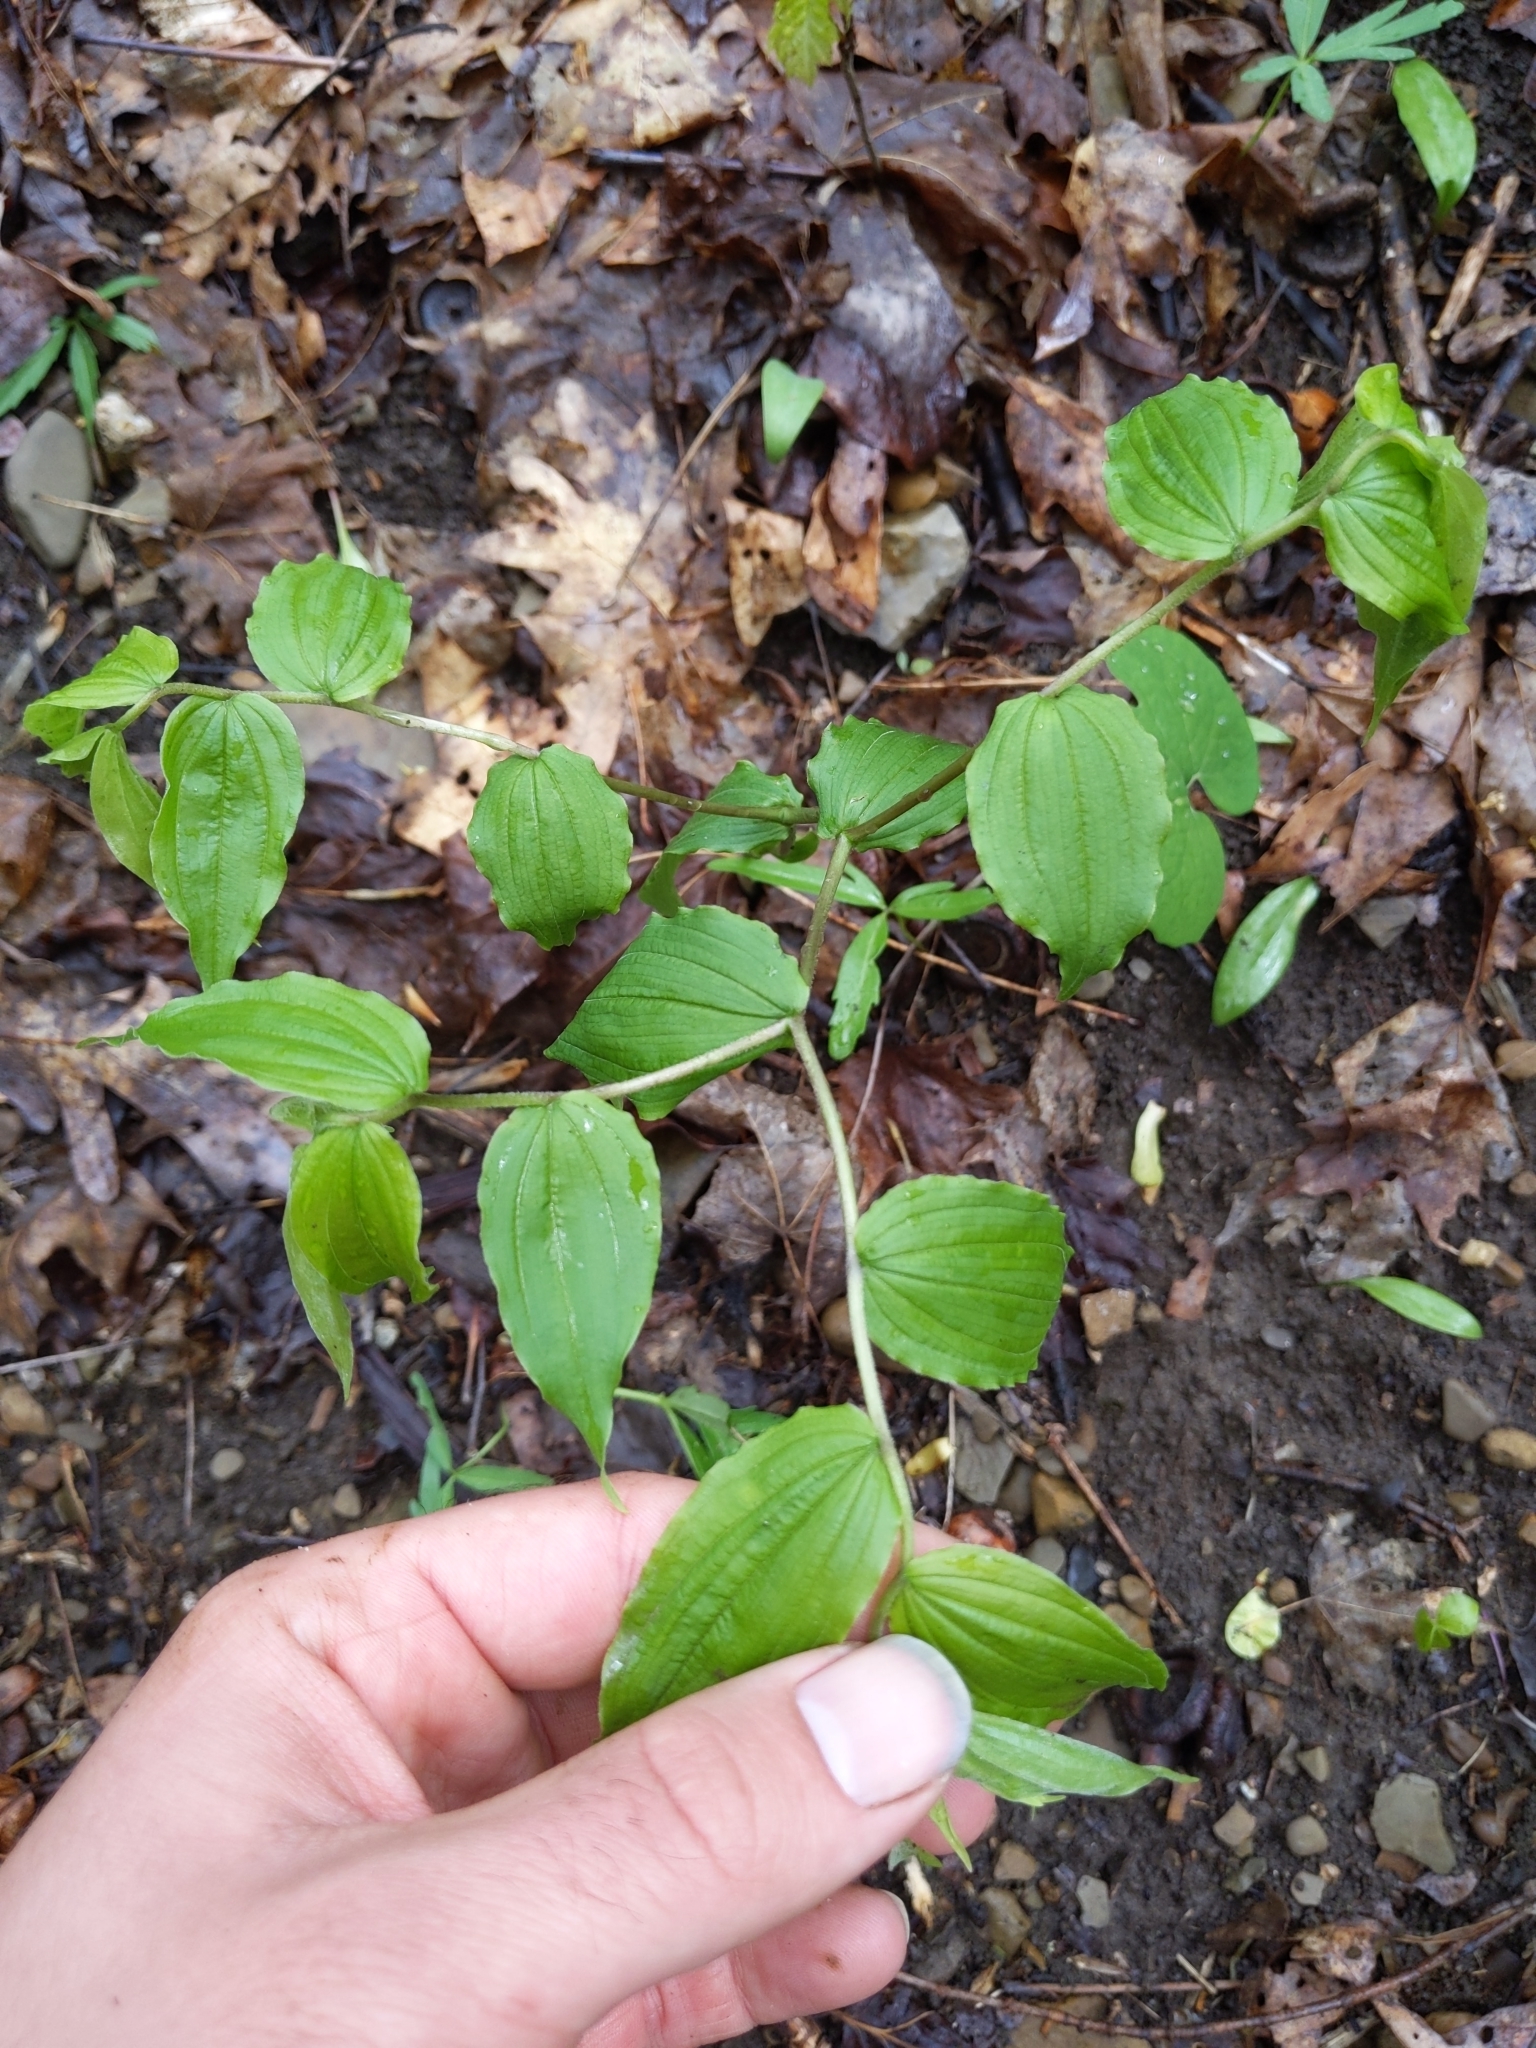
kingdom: Plantae
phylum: Tracheophyta
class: Liliopsida
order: Liliales
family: Liliaceae
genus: Prosartes
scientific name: Prosartes lanuginosa
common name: Hairy mandarin
